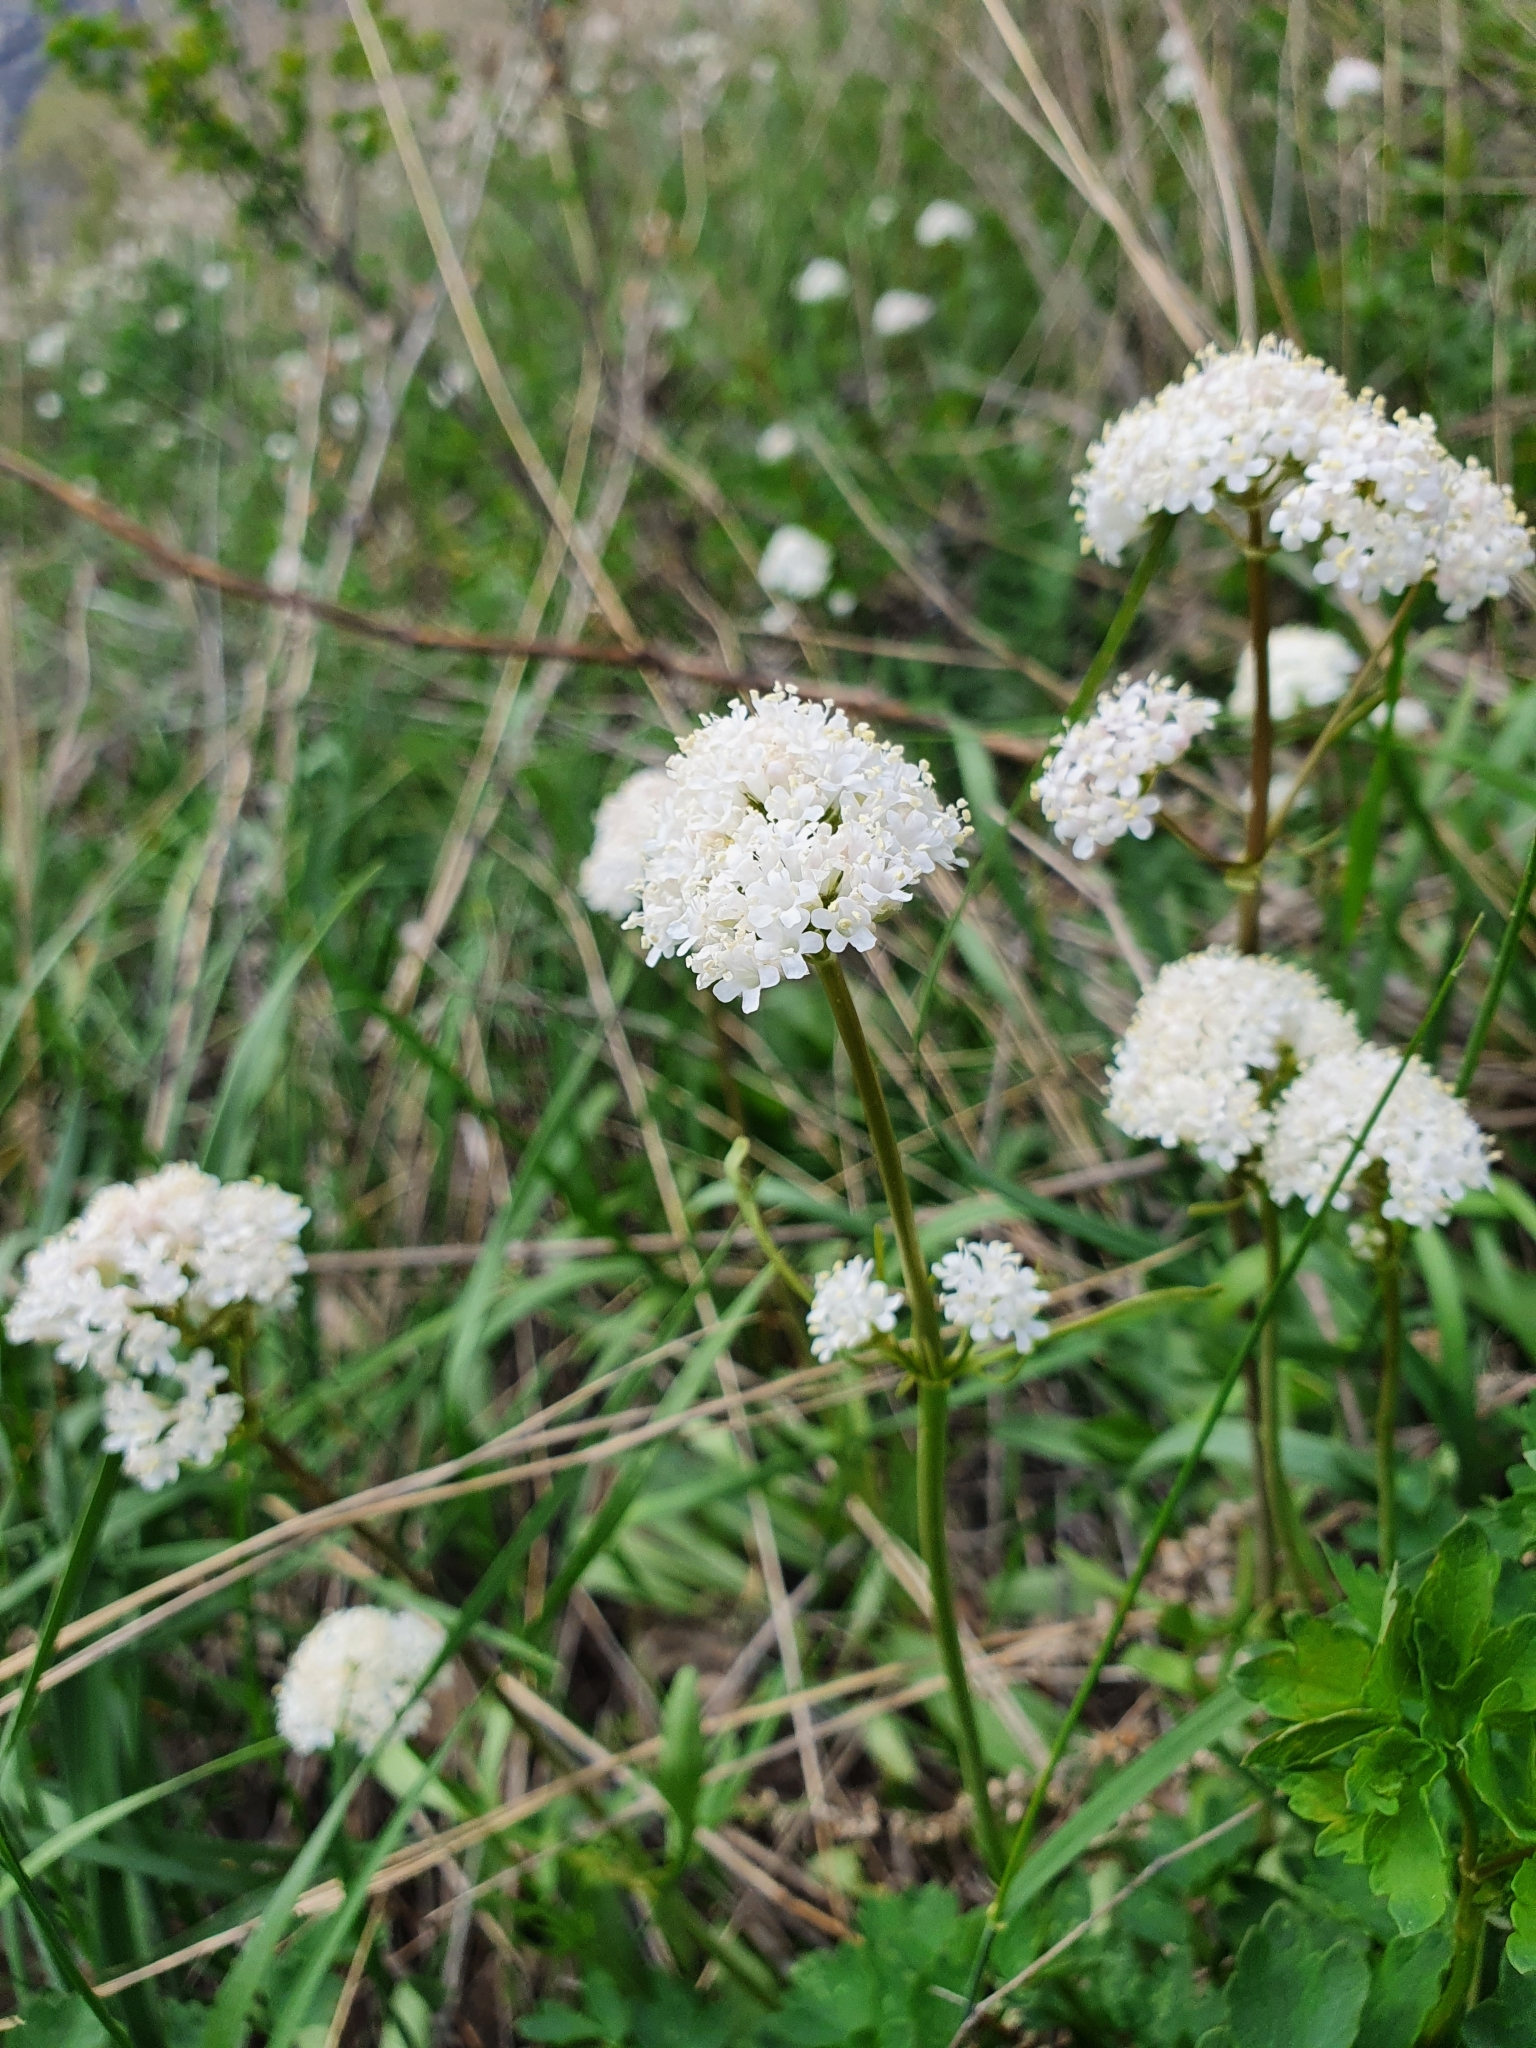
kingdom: Plantae
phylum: Tracheophyta
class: Magnoliopsida
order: Dipsacales
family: Caprifoliaceae
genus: Valeriana
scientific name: Valeriana tuberosa
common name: Tuberous valerian
